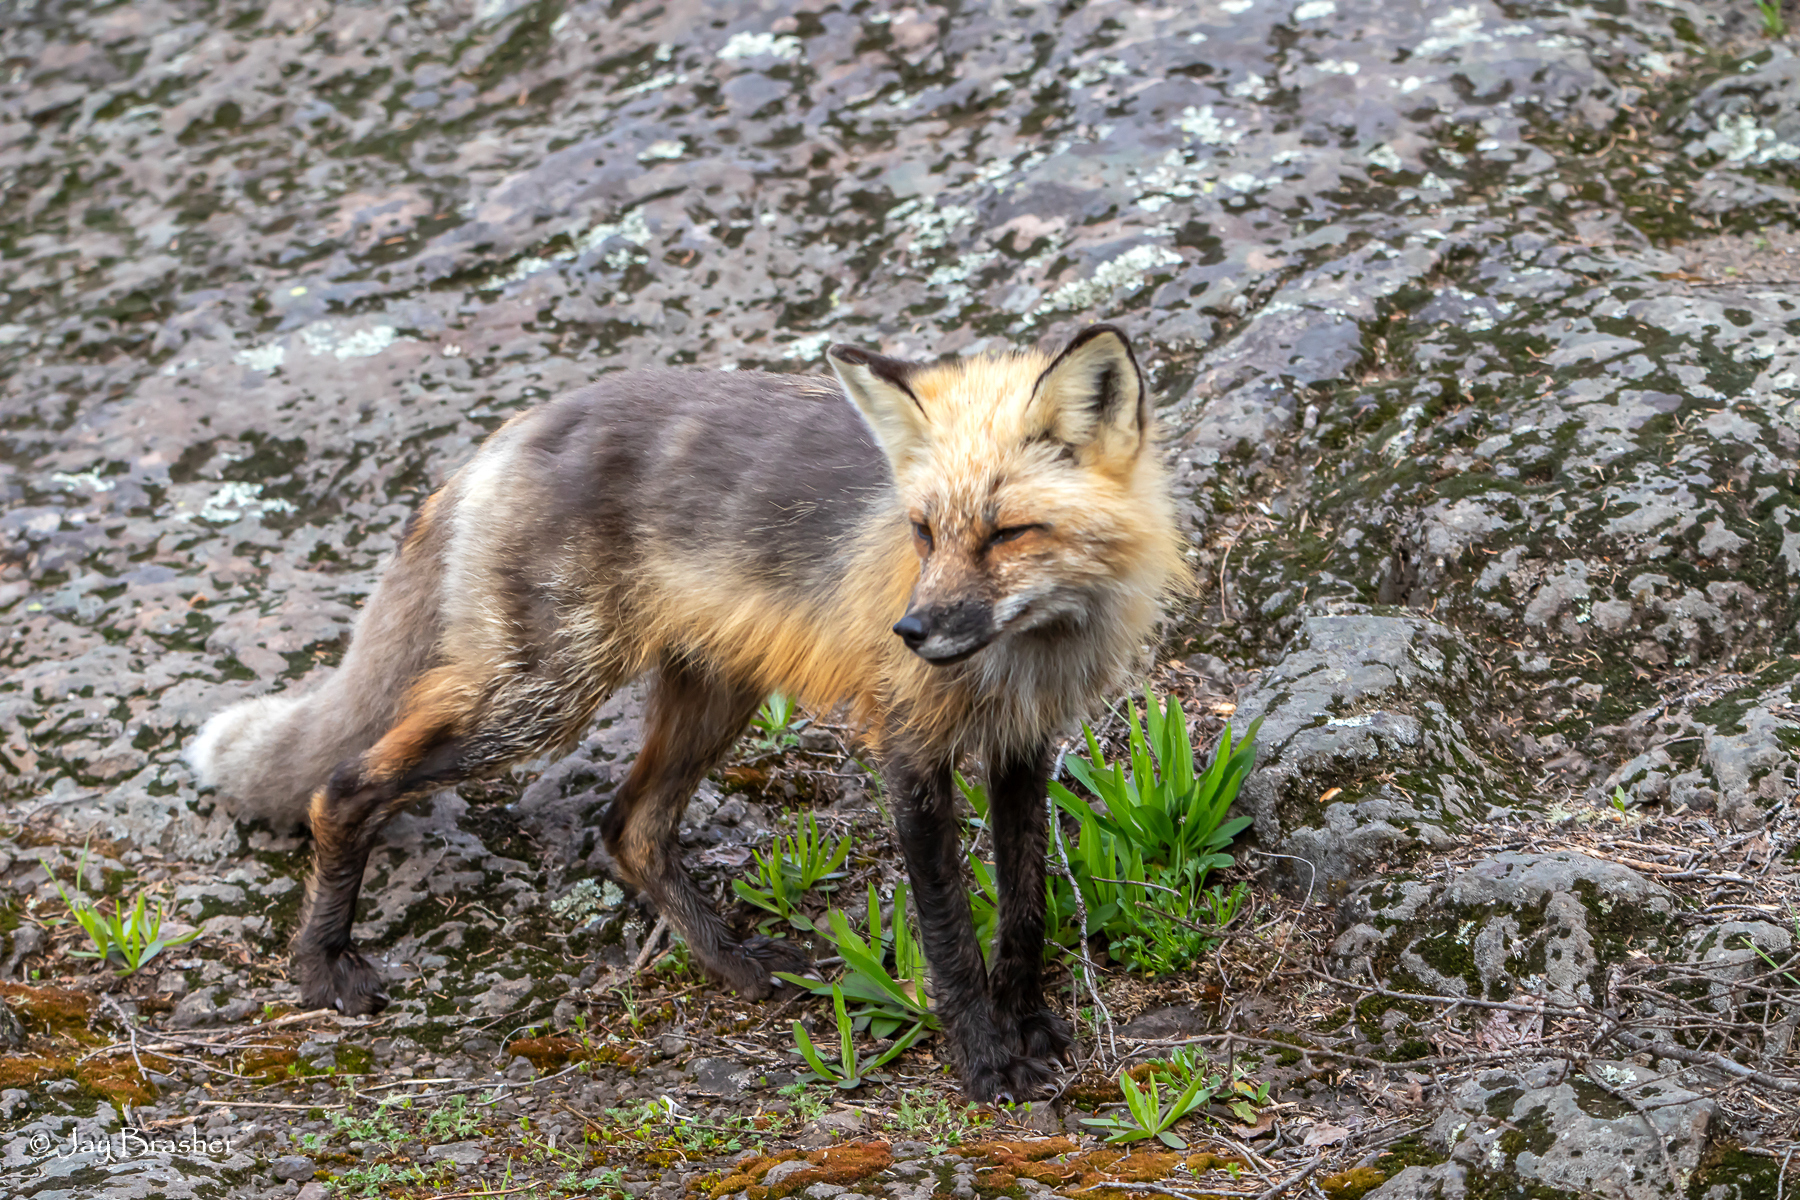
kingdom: Animalia
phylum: Chordata
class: Mammalia
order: Carnivora
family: Canidae
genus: Vulpes
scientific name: Vulpes vulpes
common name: Red fox
